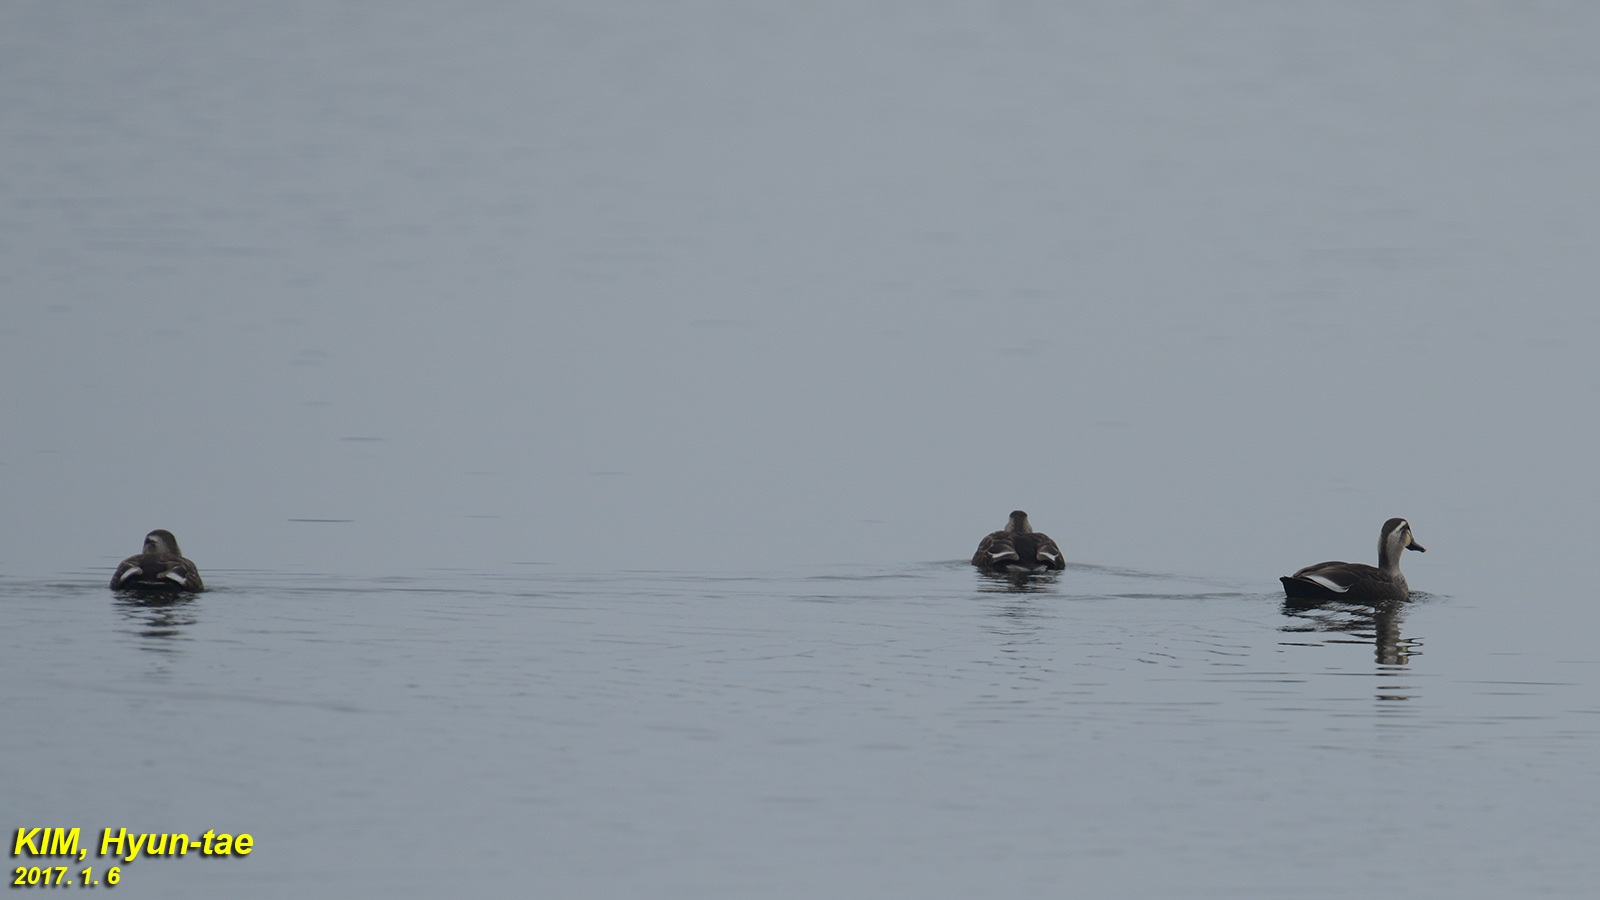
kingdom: Animalia
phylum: Chordata
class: Aves
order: Anseriformes
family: Anatidae
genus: Anas
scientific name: Anas zonorhyncha
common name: Eastern spot-billed duck
